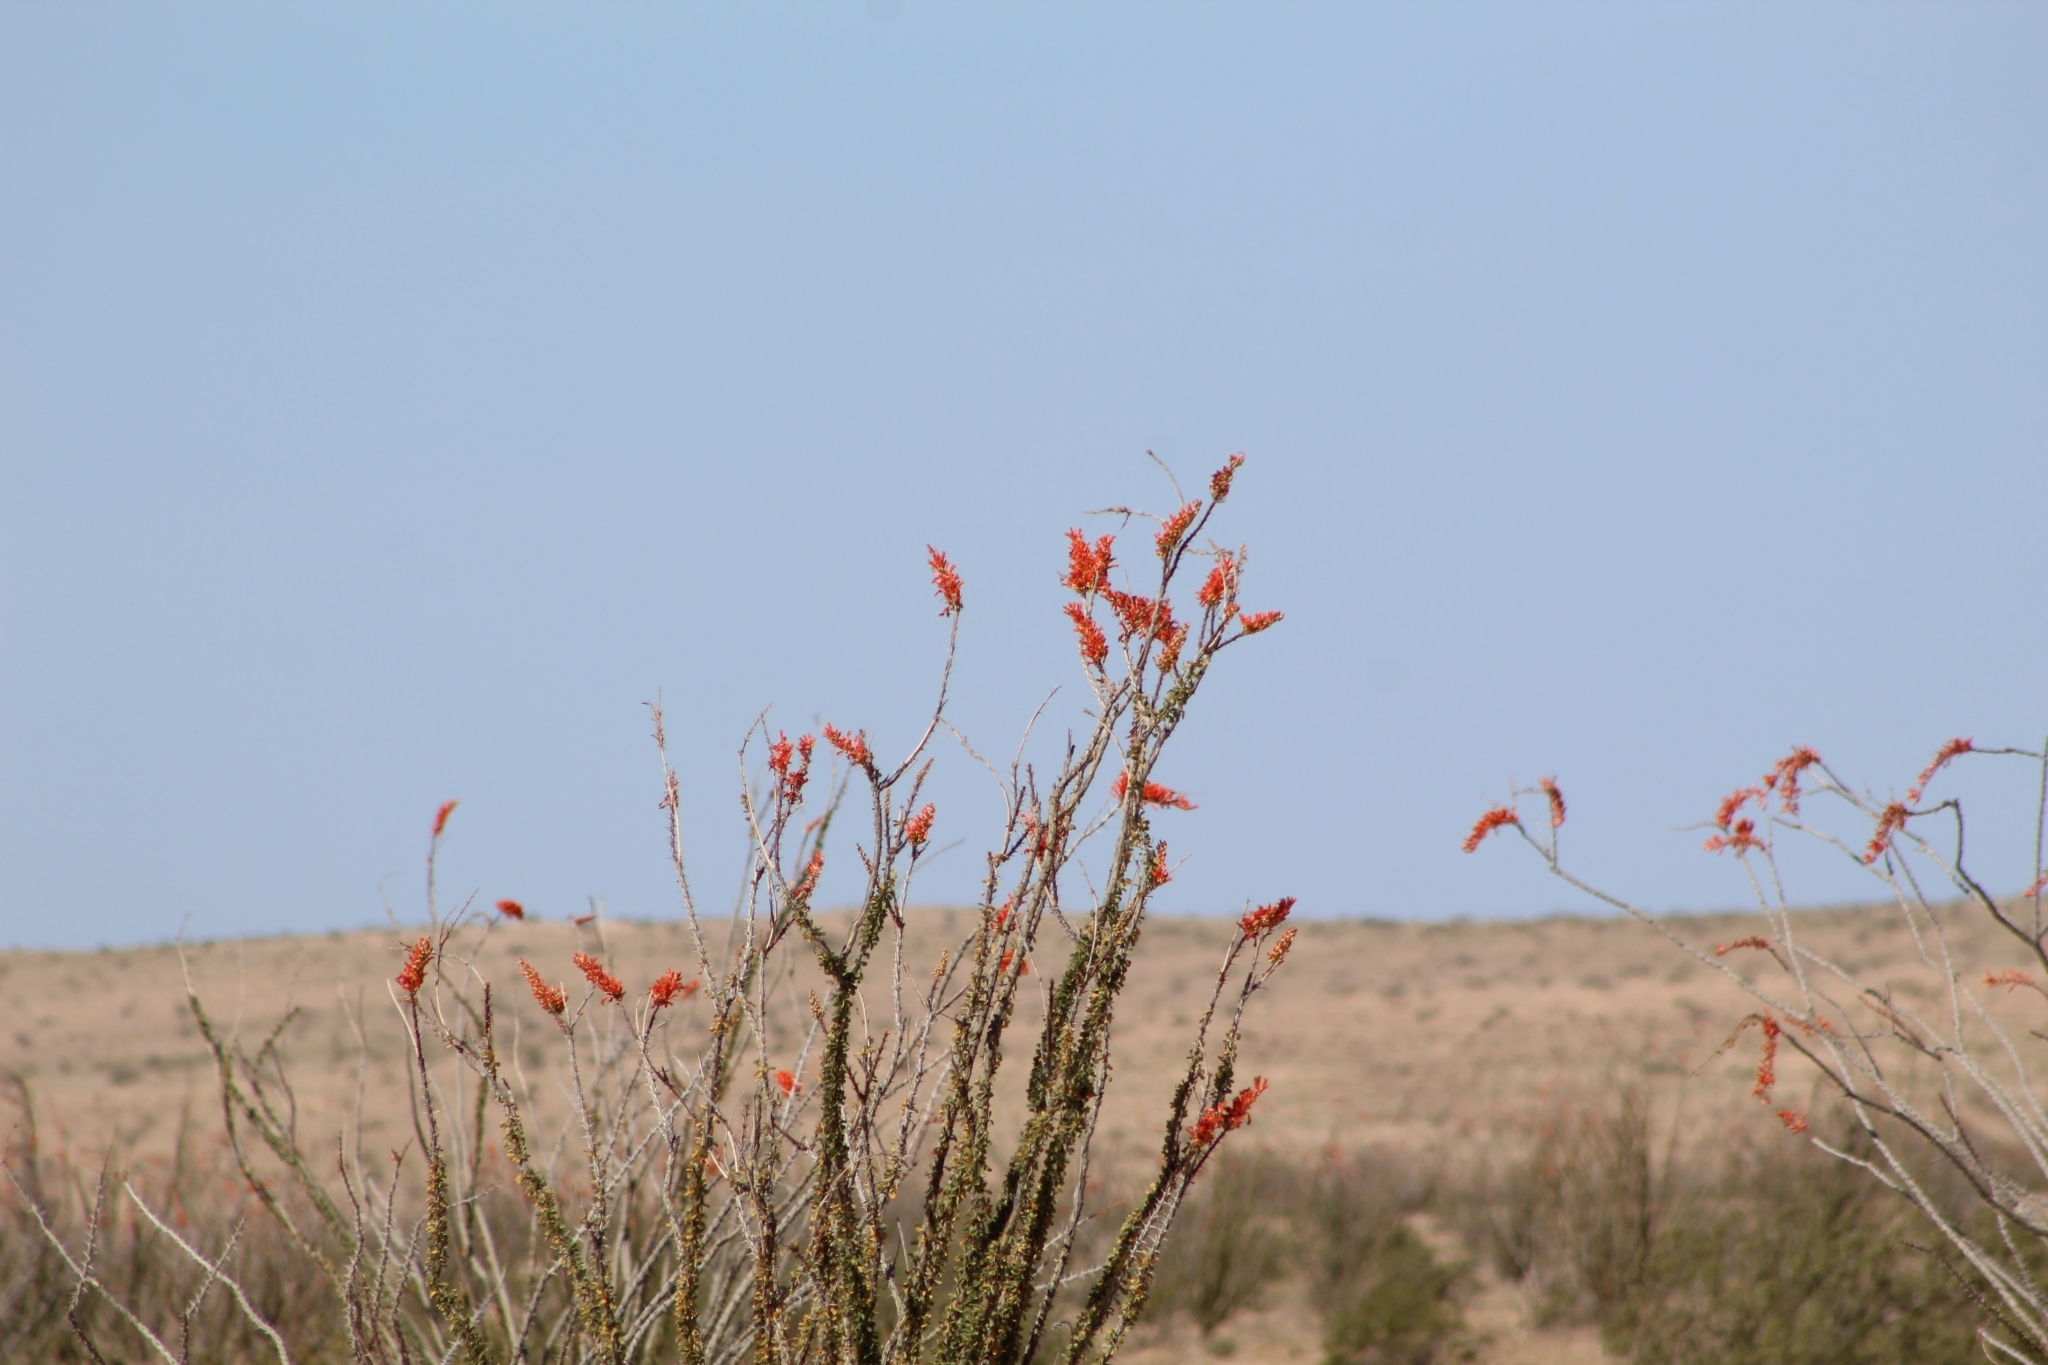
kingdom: Plantae
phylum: Tracheophyta
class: Magnoliopsida
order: Ericales
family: Fouquieriaceae
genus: Fouquieria
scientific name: Fouquieria splendens
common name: Vine-cactus
